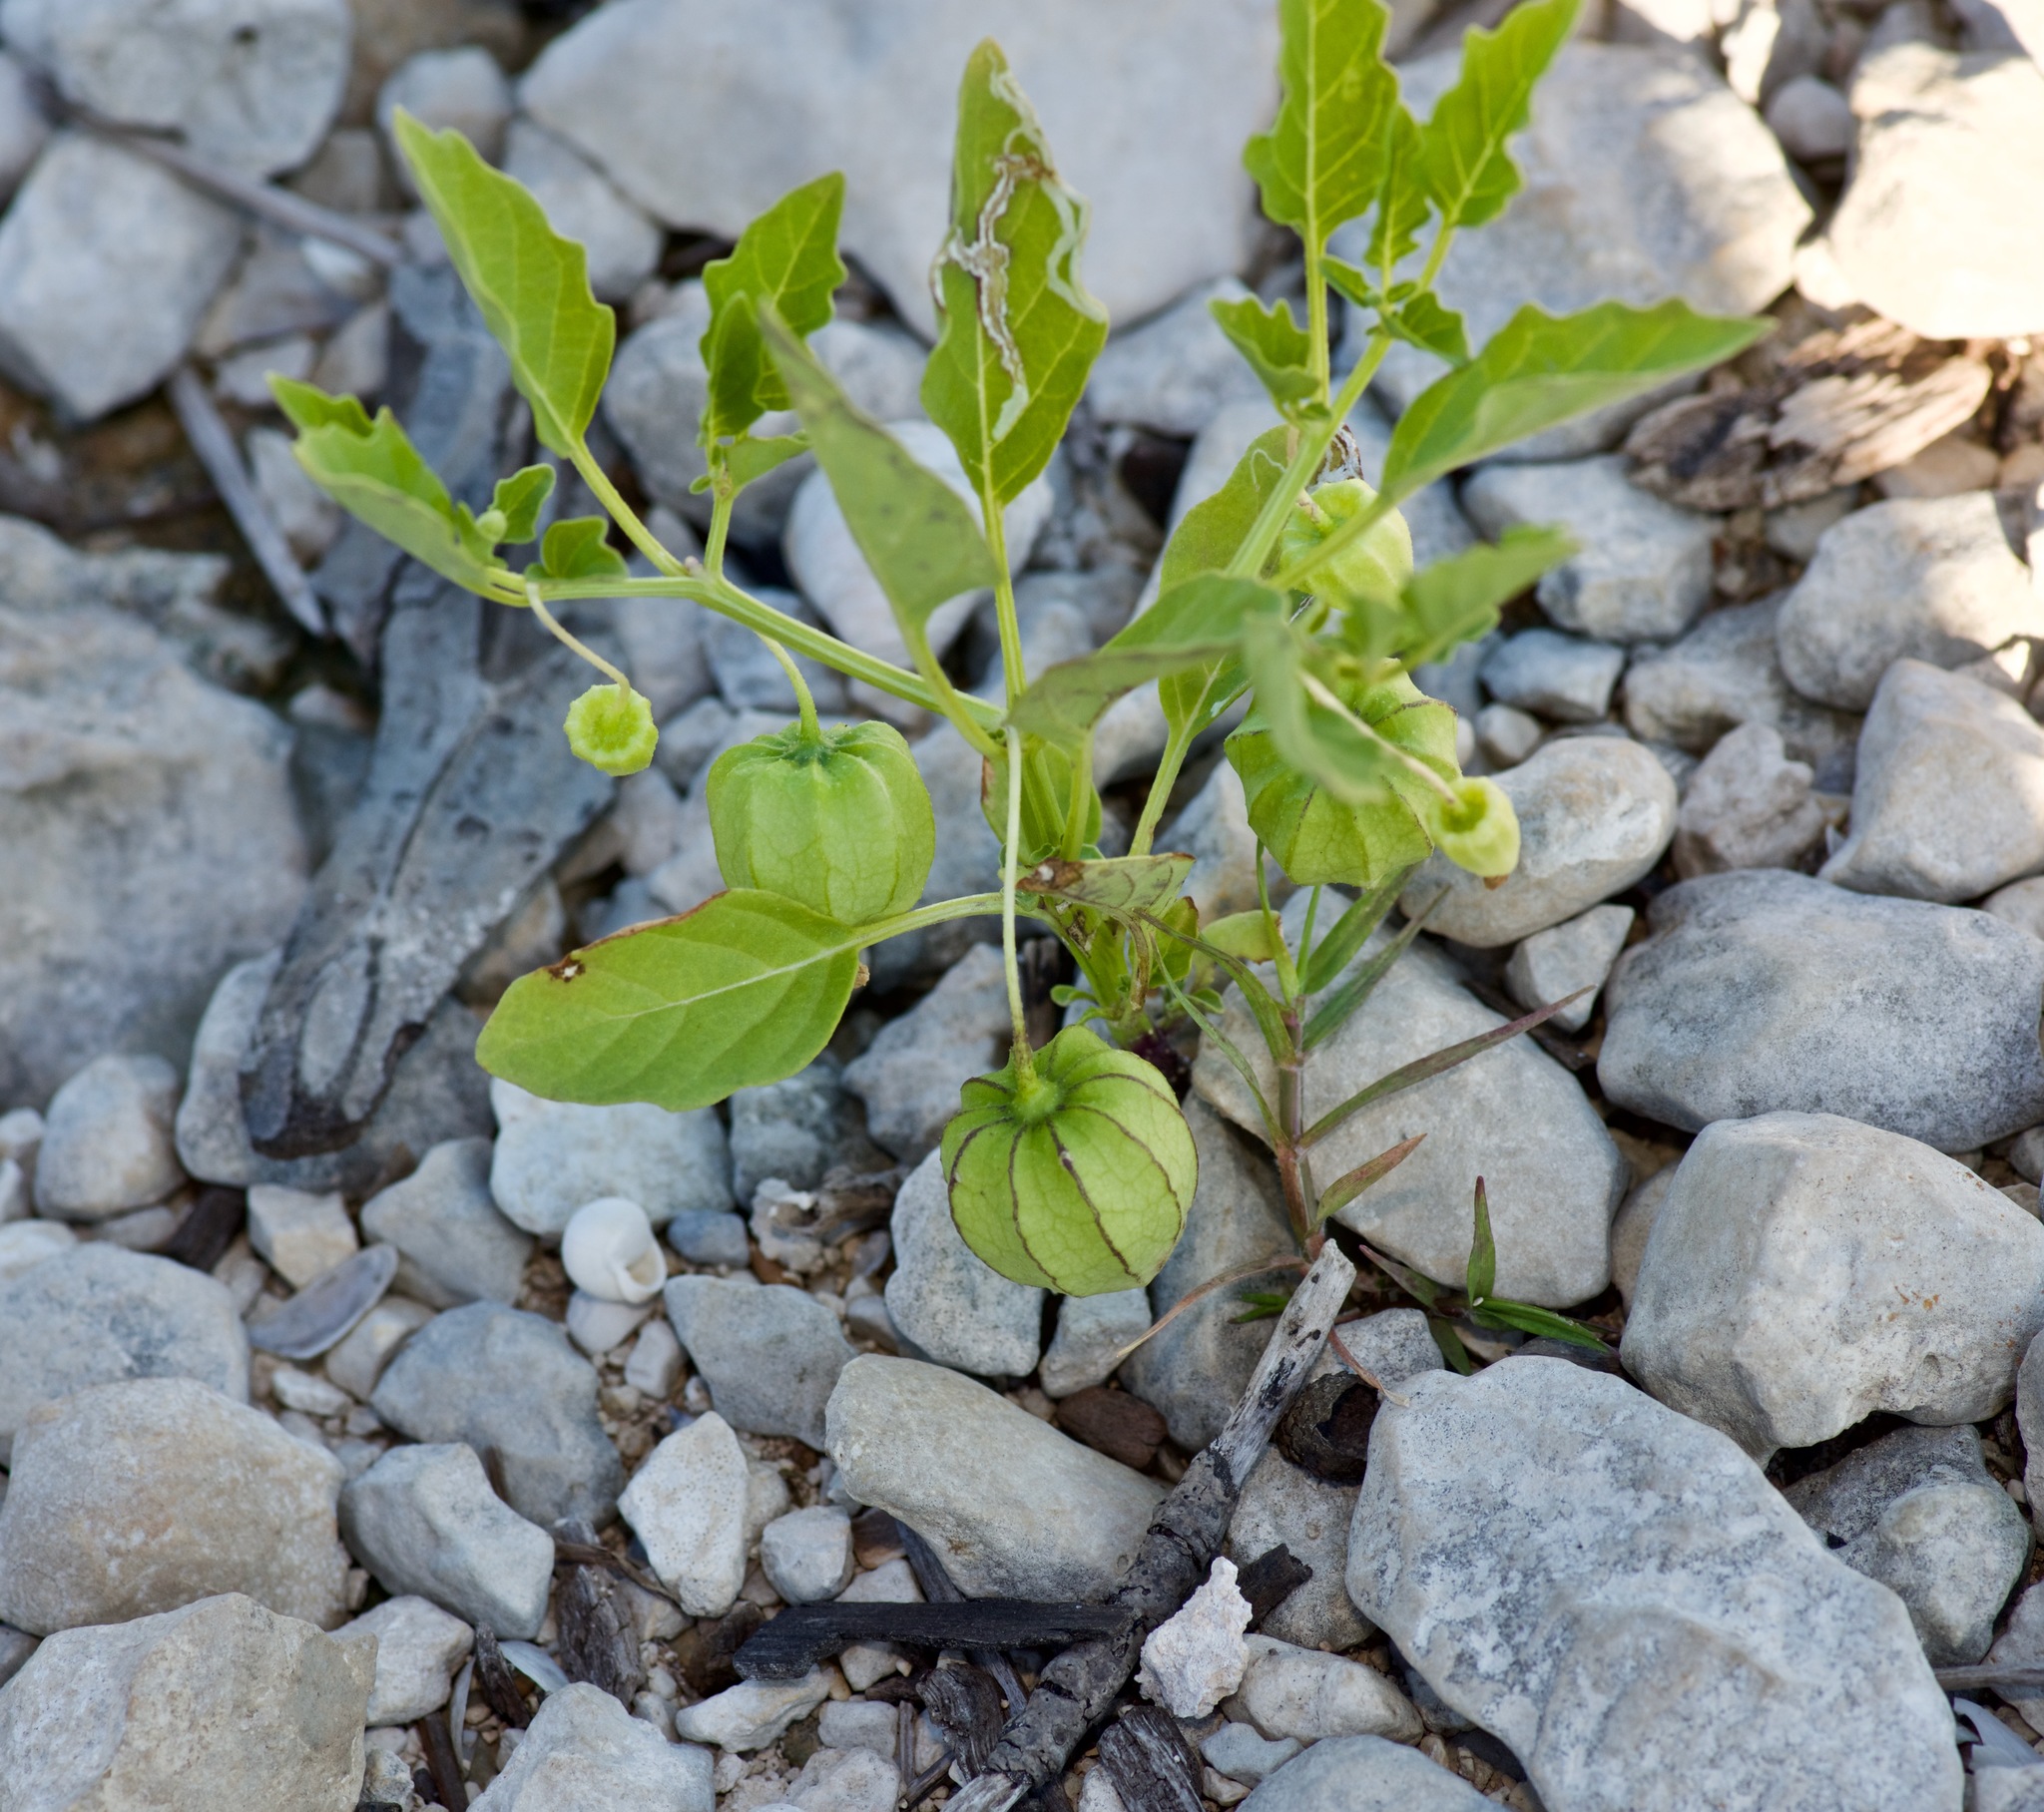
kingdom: Plantae
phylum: Tracheophyta
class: Magnoliopsida
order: Solanales
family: Solanaceae
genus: Physalis
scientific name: Physalis longifolia
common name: Common ground-cherry
